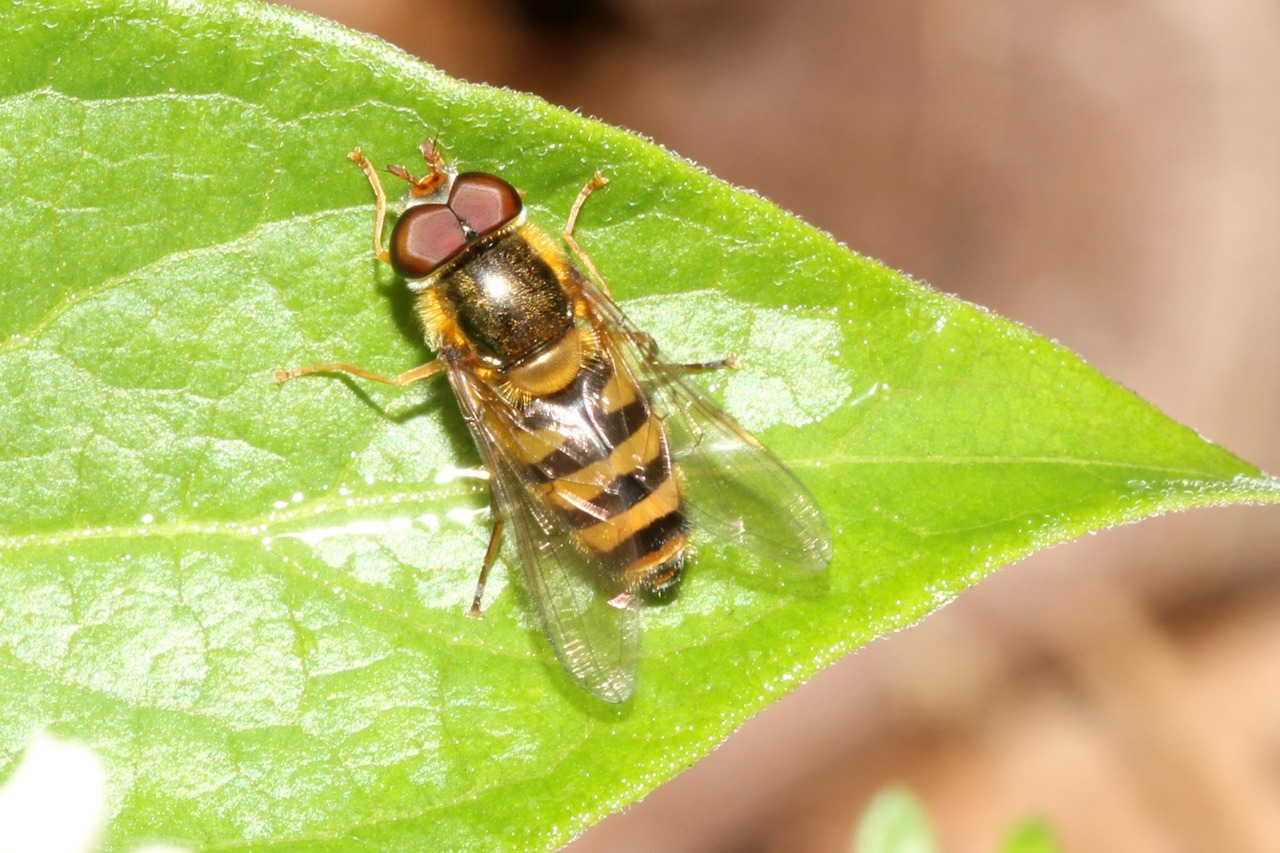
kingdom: Animalia
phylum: Arthropoda
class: Insecta
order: Diptera
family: Syrphidae
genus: Epistrophe
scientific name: Epistrophe nitidicollis
